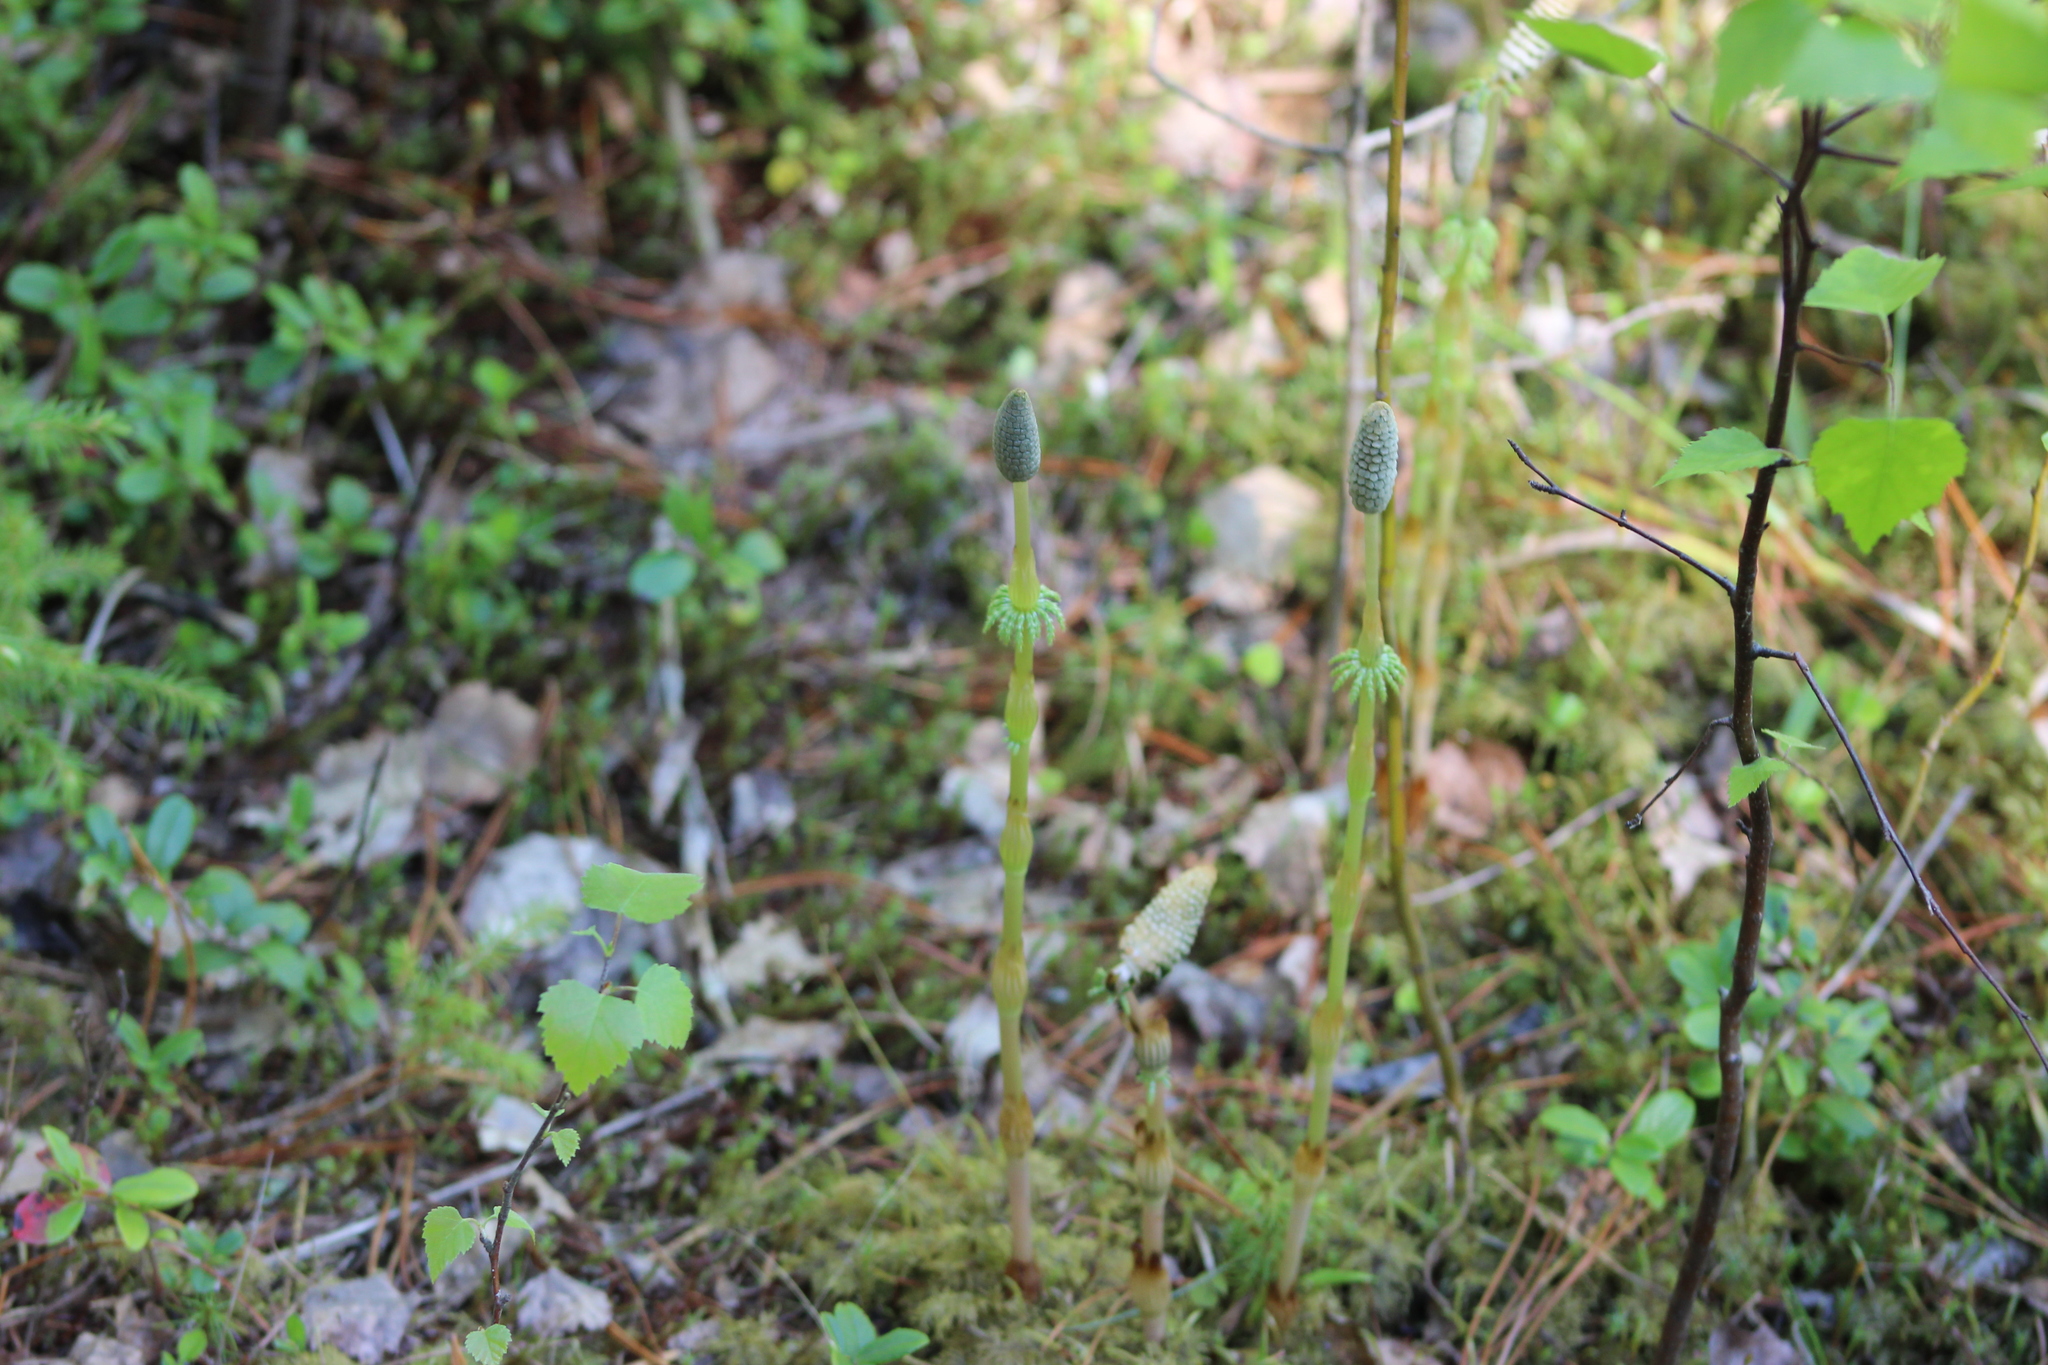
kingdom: Plantae
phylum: Tracheophyta
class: Polypodiopsida
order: Equisetales
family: Equisetaceae
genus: Equisetum
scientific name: Equisetum sylvaticum
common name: Wood horsetail
